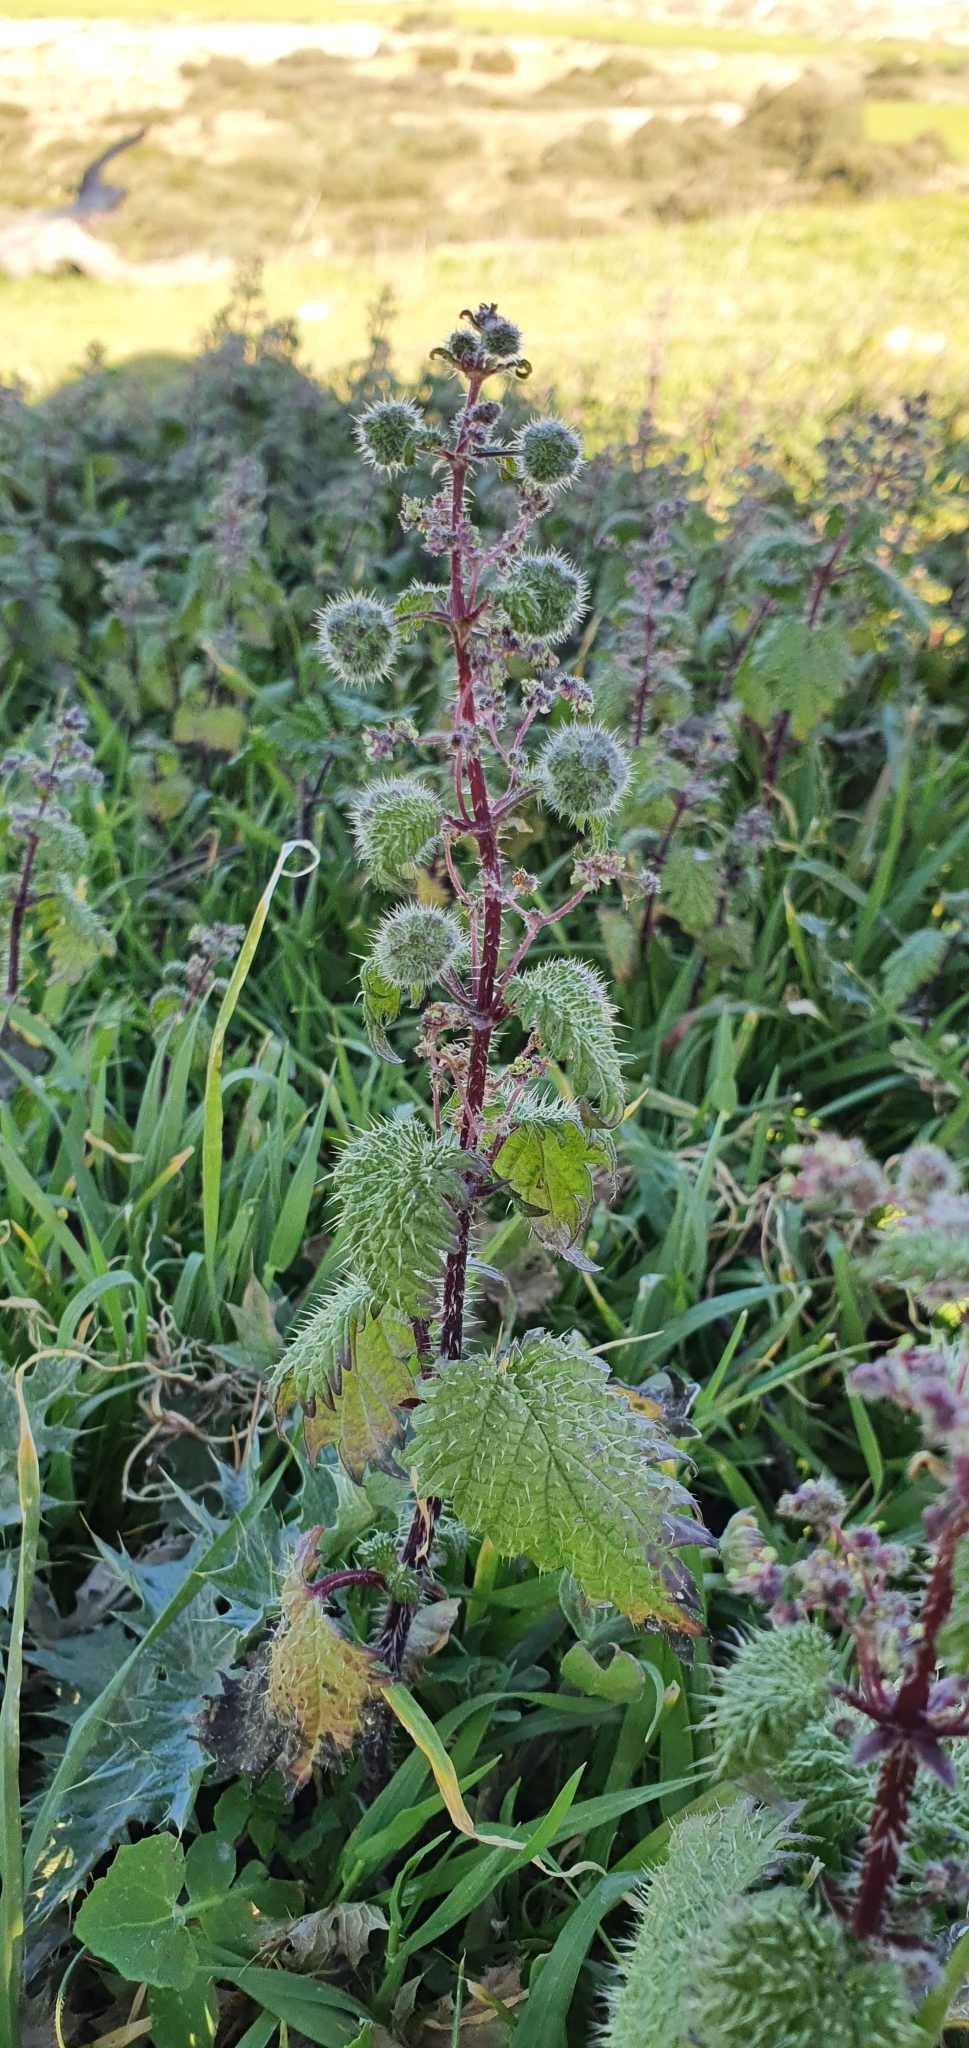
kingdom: Plantae
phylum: Tracheophyta
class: Magnoliopsida
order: Rosales
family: Urticaceae
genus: Urtica
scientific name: Urtica pilulifera
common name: Roman nettle
